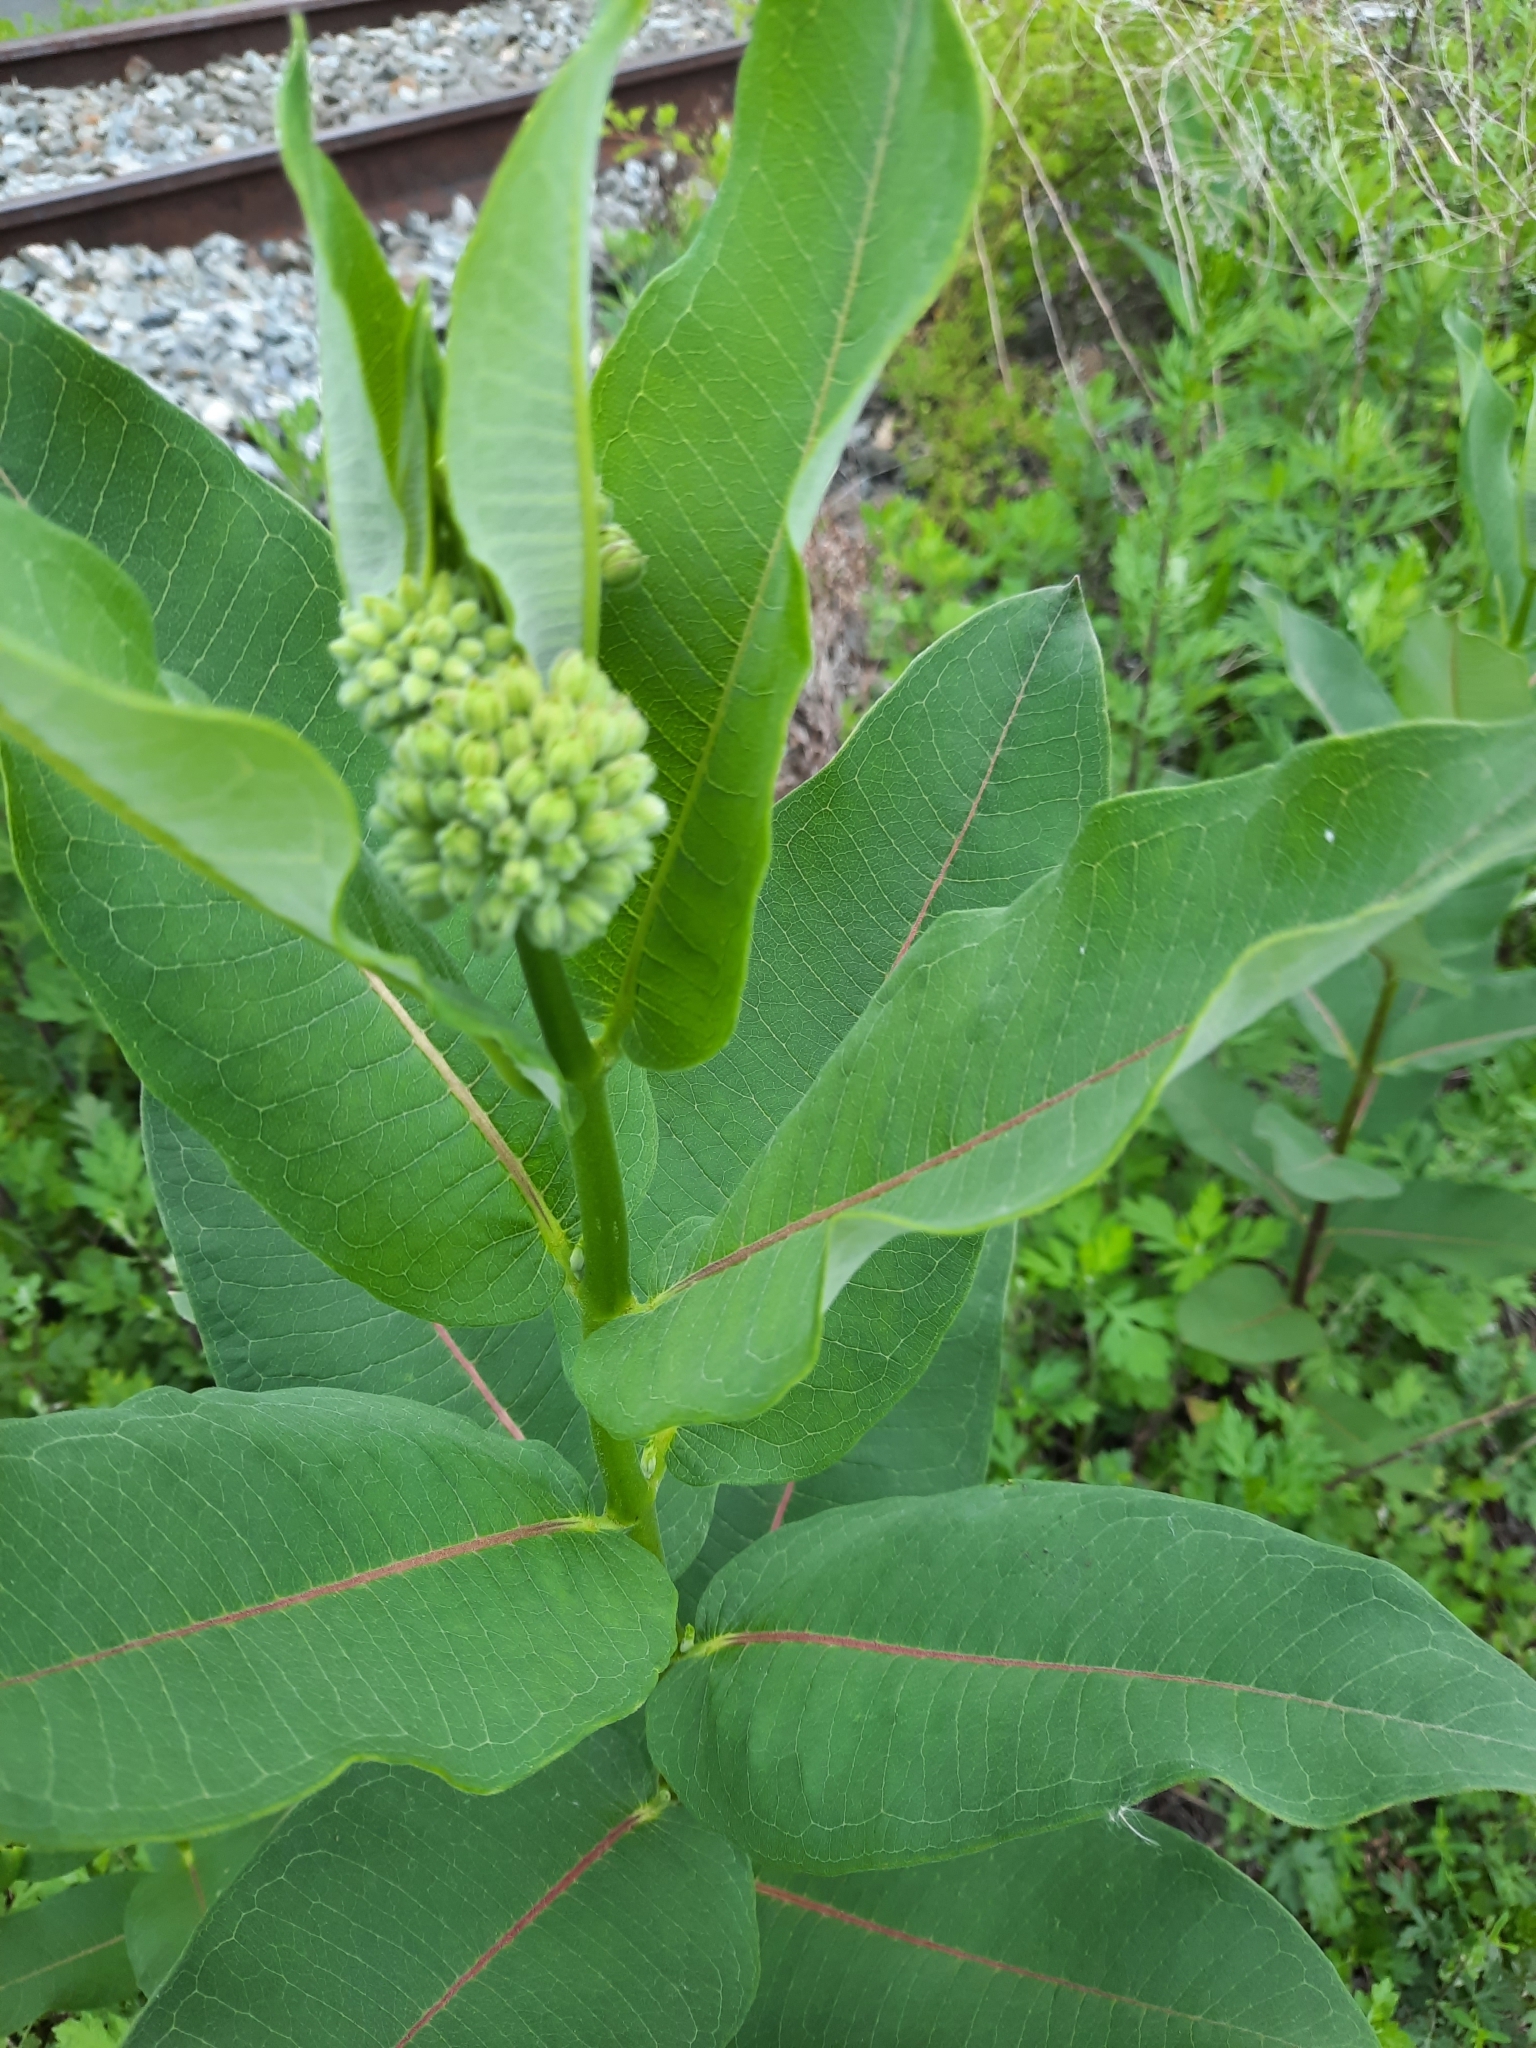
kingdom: Plantae
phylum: Tracheophyta
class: Magnoliopsida
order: Gentianales
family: Apocynaceae
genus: Asclepias
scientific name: Asclepias syriaca
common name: Common milkweed
